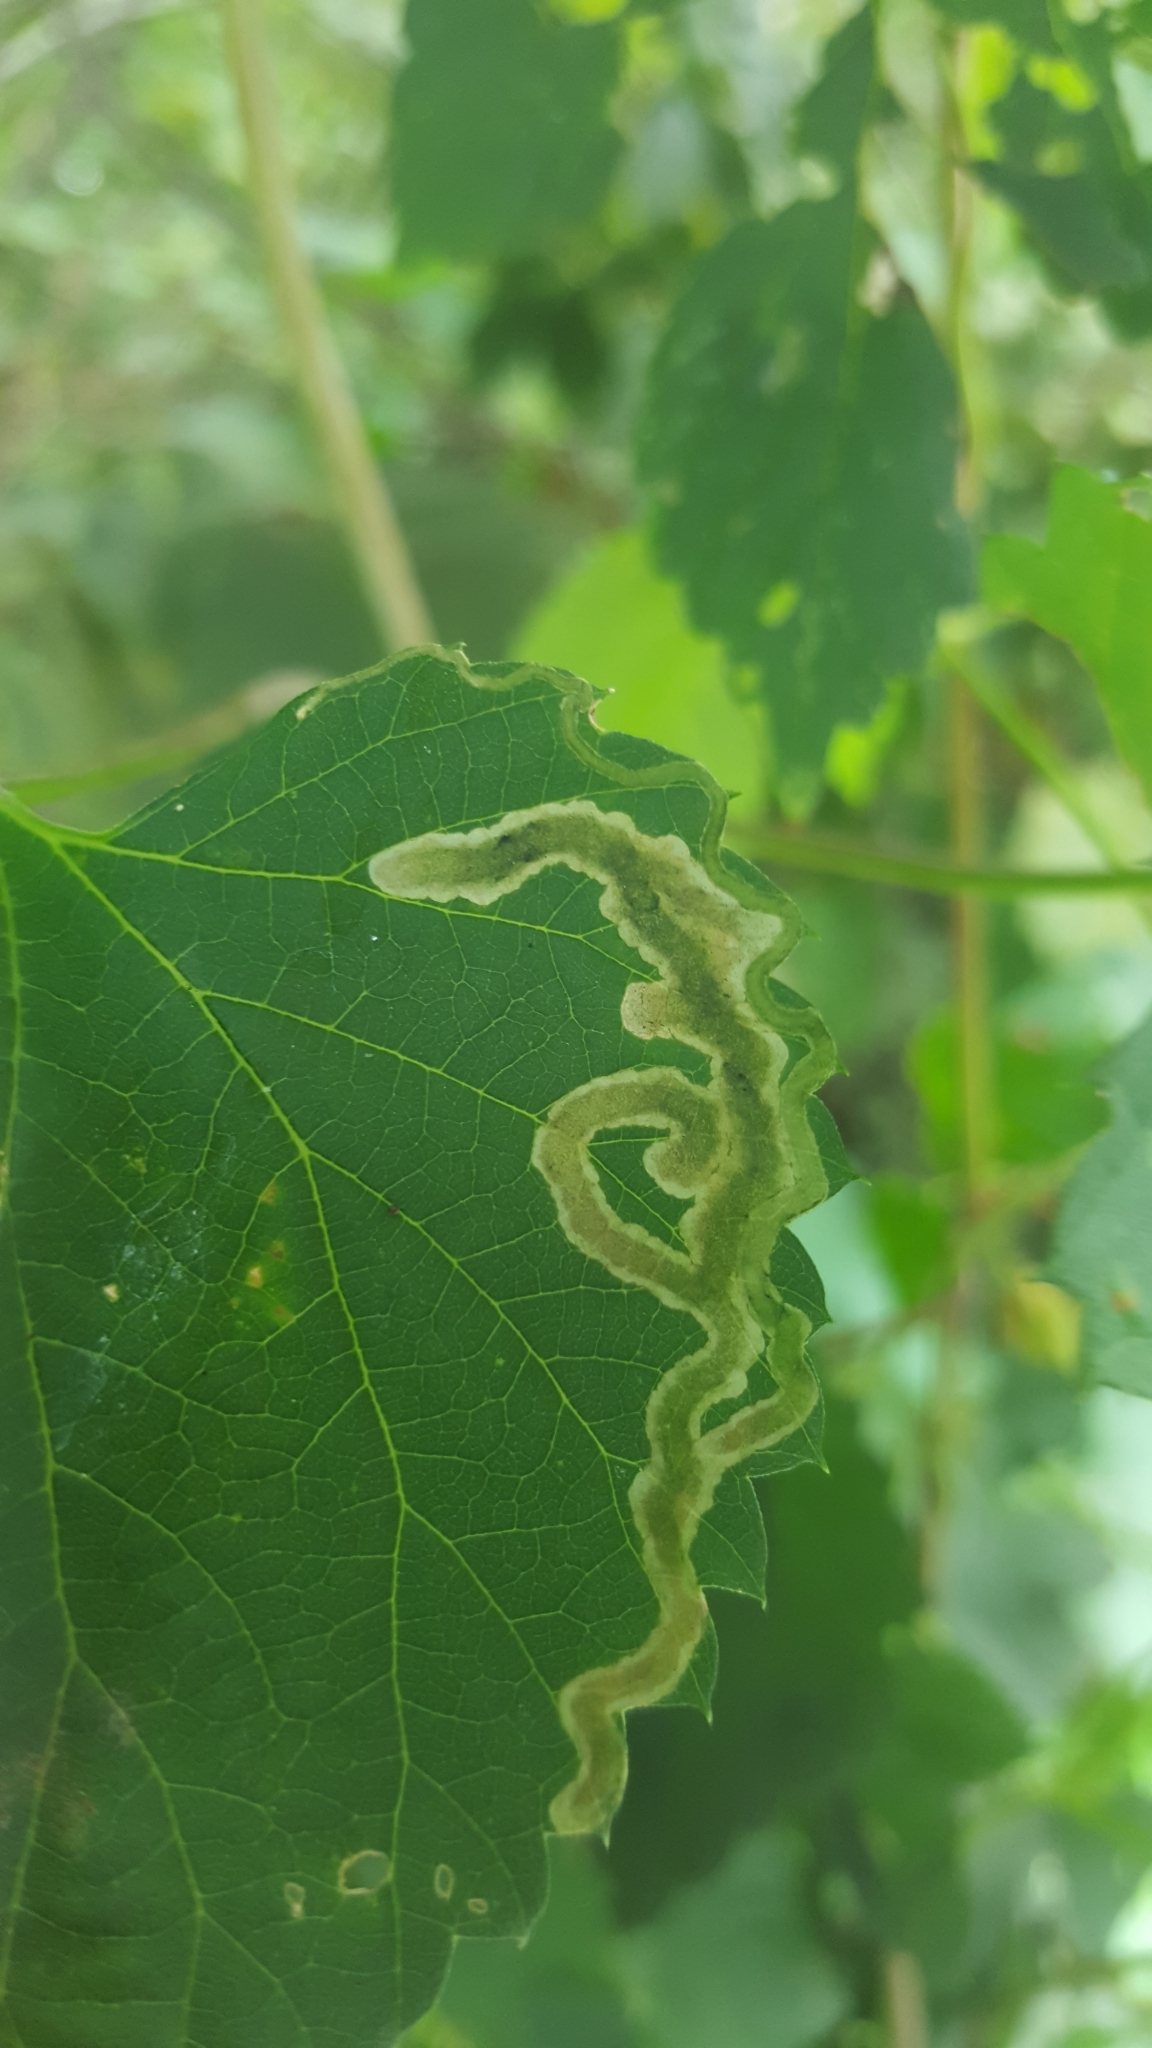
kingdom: Animalia
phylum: Arthropoda
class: Insecta
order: Diptera
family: Agromyzidae
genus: Agromyza
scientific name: Agromyza flaviceps
